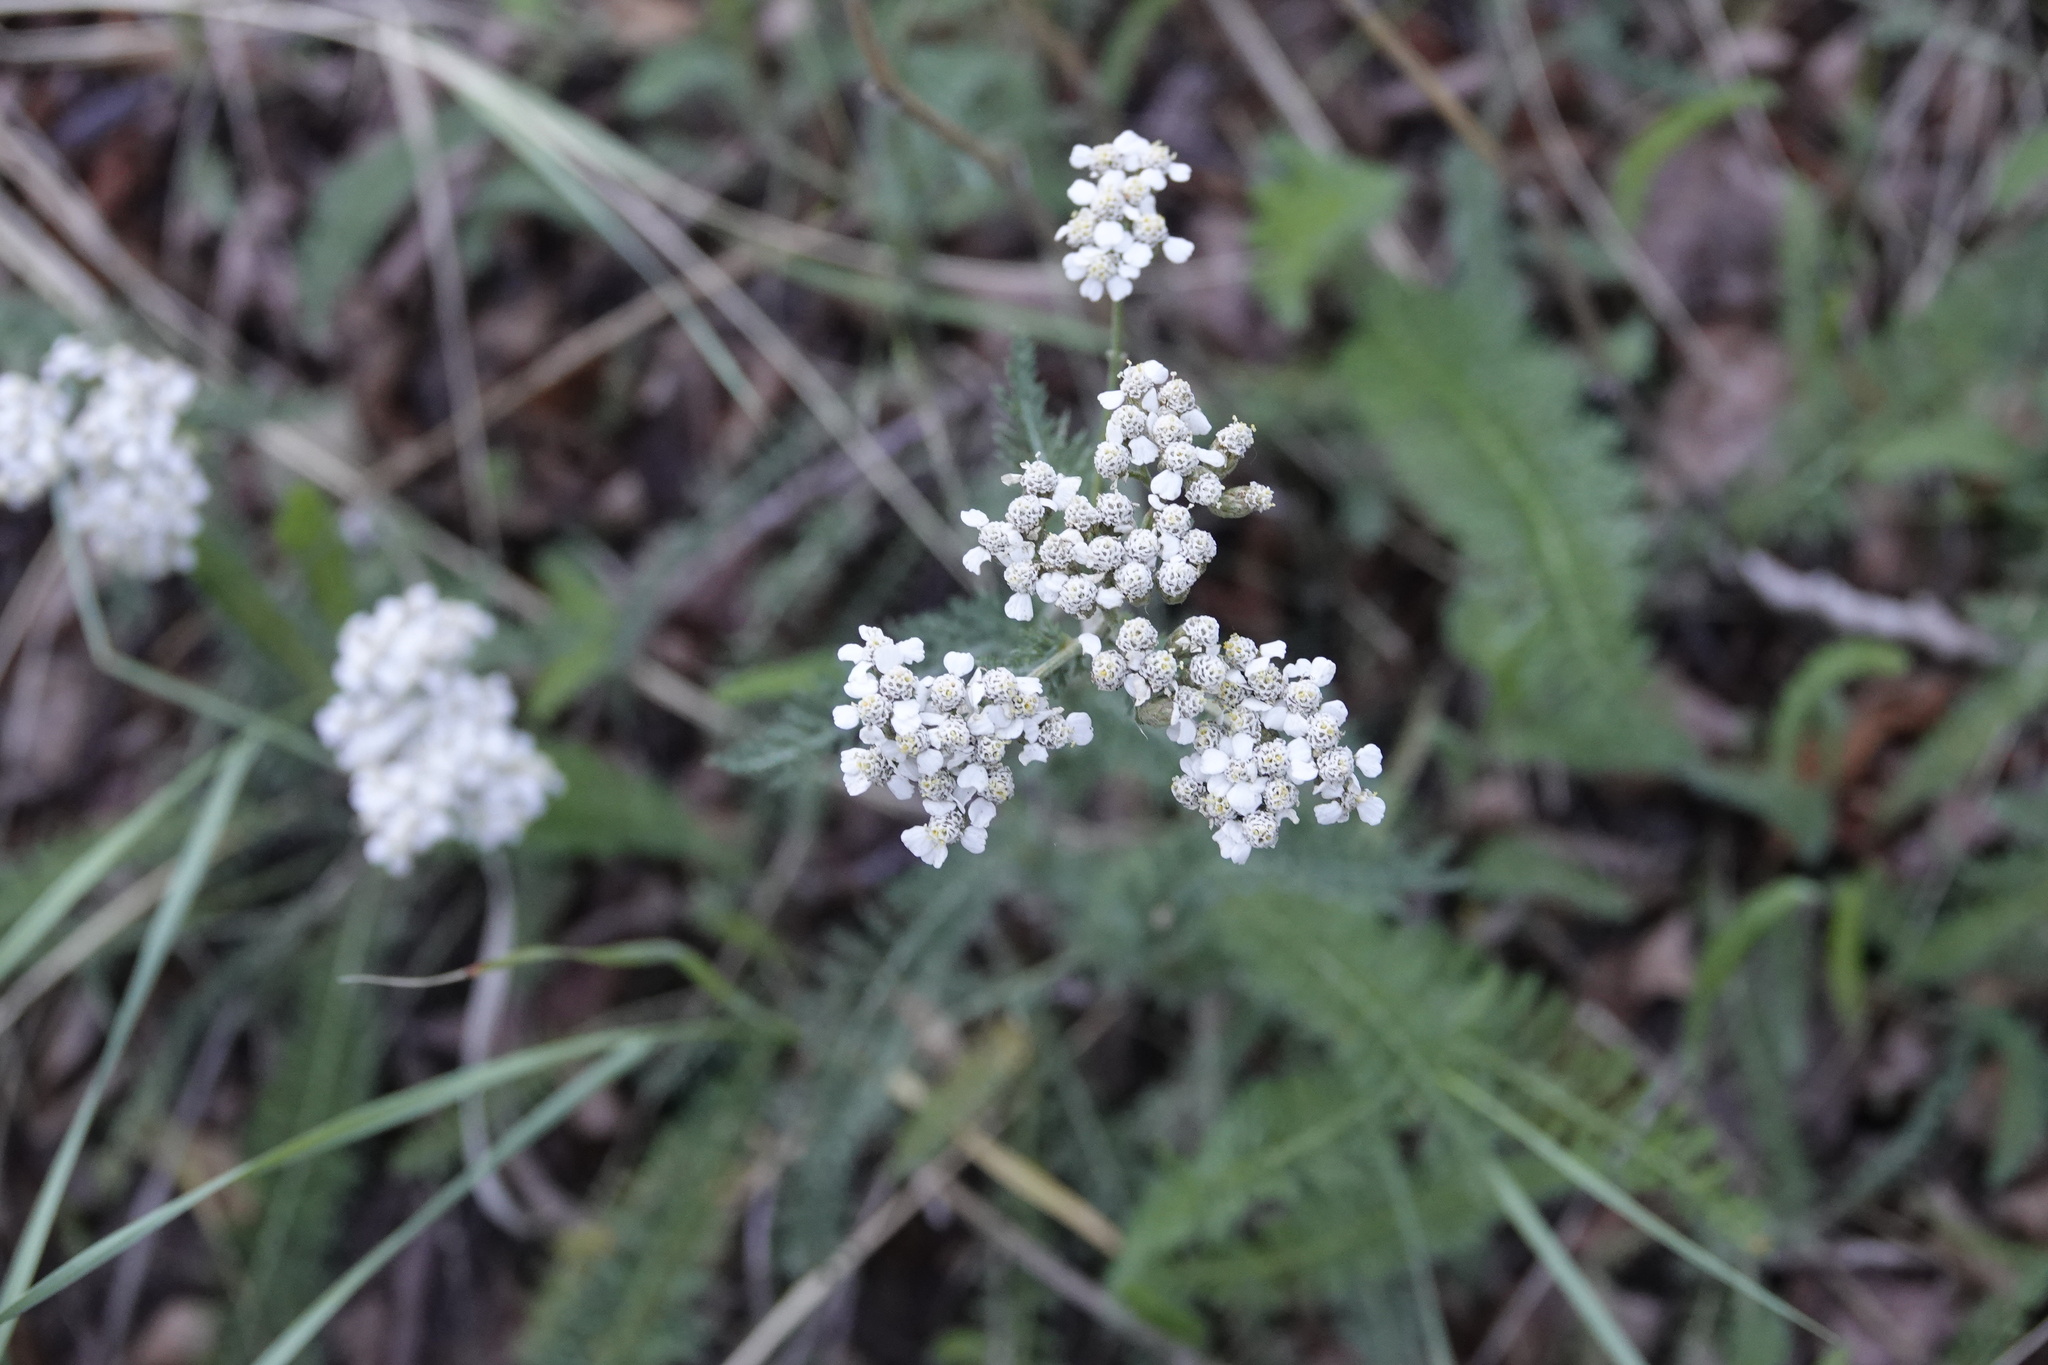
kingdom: Plantae
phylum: Tracheophyta
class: Magnoliopsida
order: Asterales
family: Asteraceae
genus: Achillea
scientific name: Achillea millefolium
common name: Yarrow
